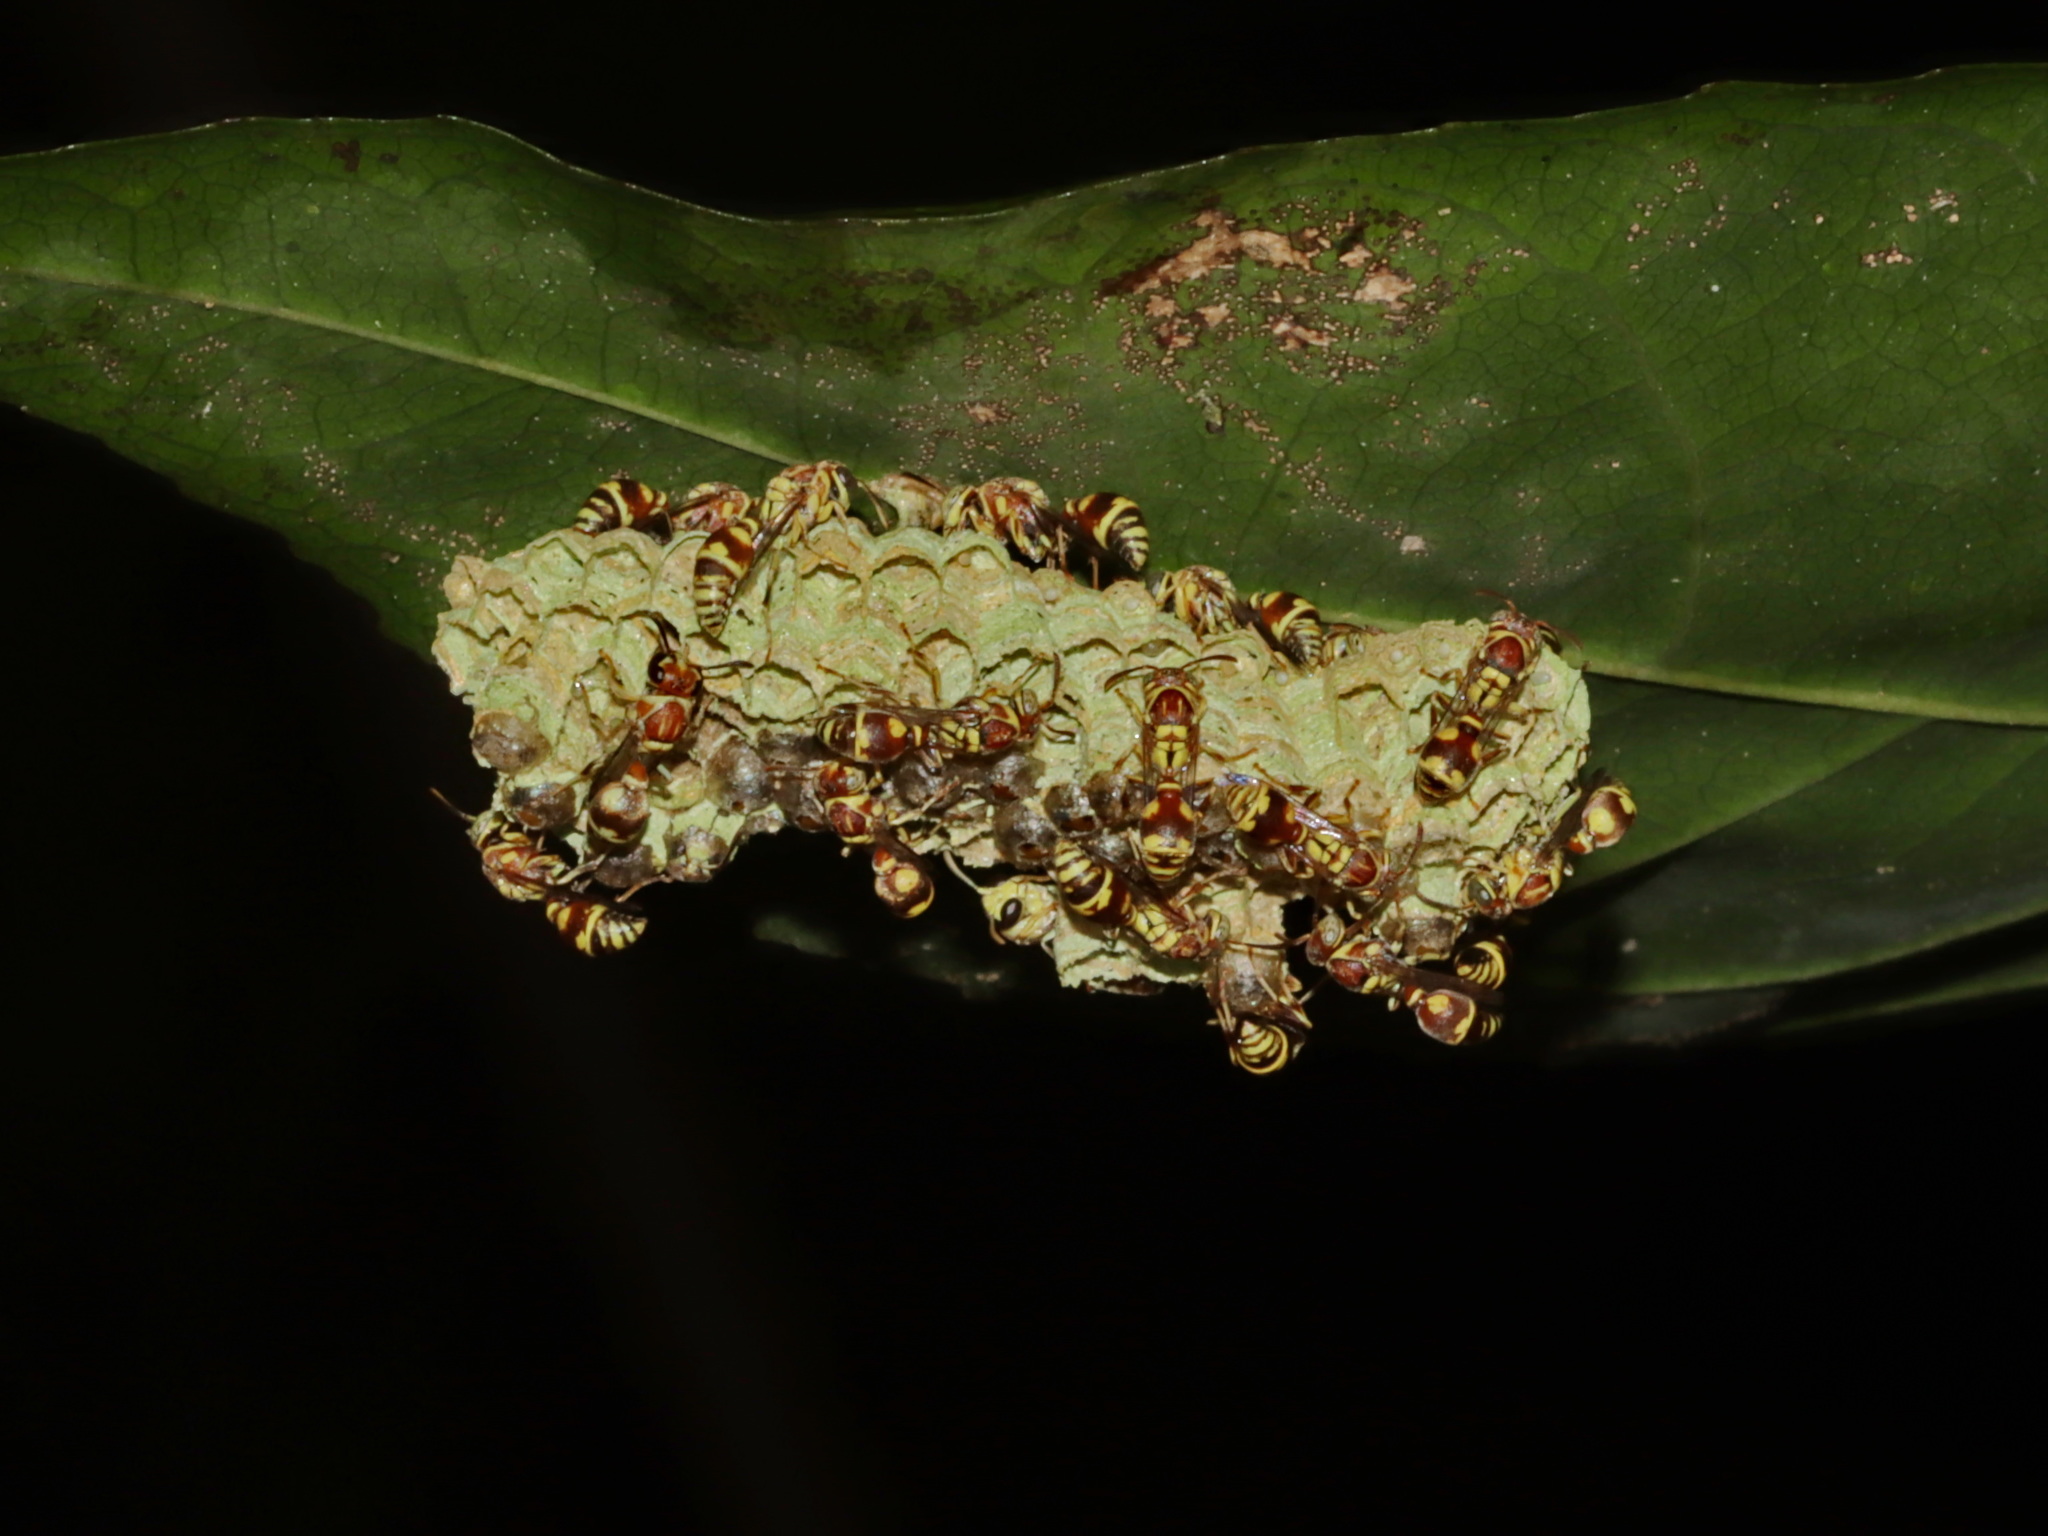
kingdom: Animalia
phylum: Arthropoda
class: Insecta
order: Hymenoptera
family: Vespidae
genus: Ropalidia
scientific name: Ropalidia cyathiformis
